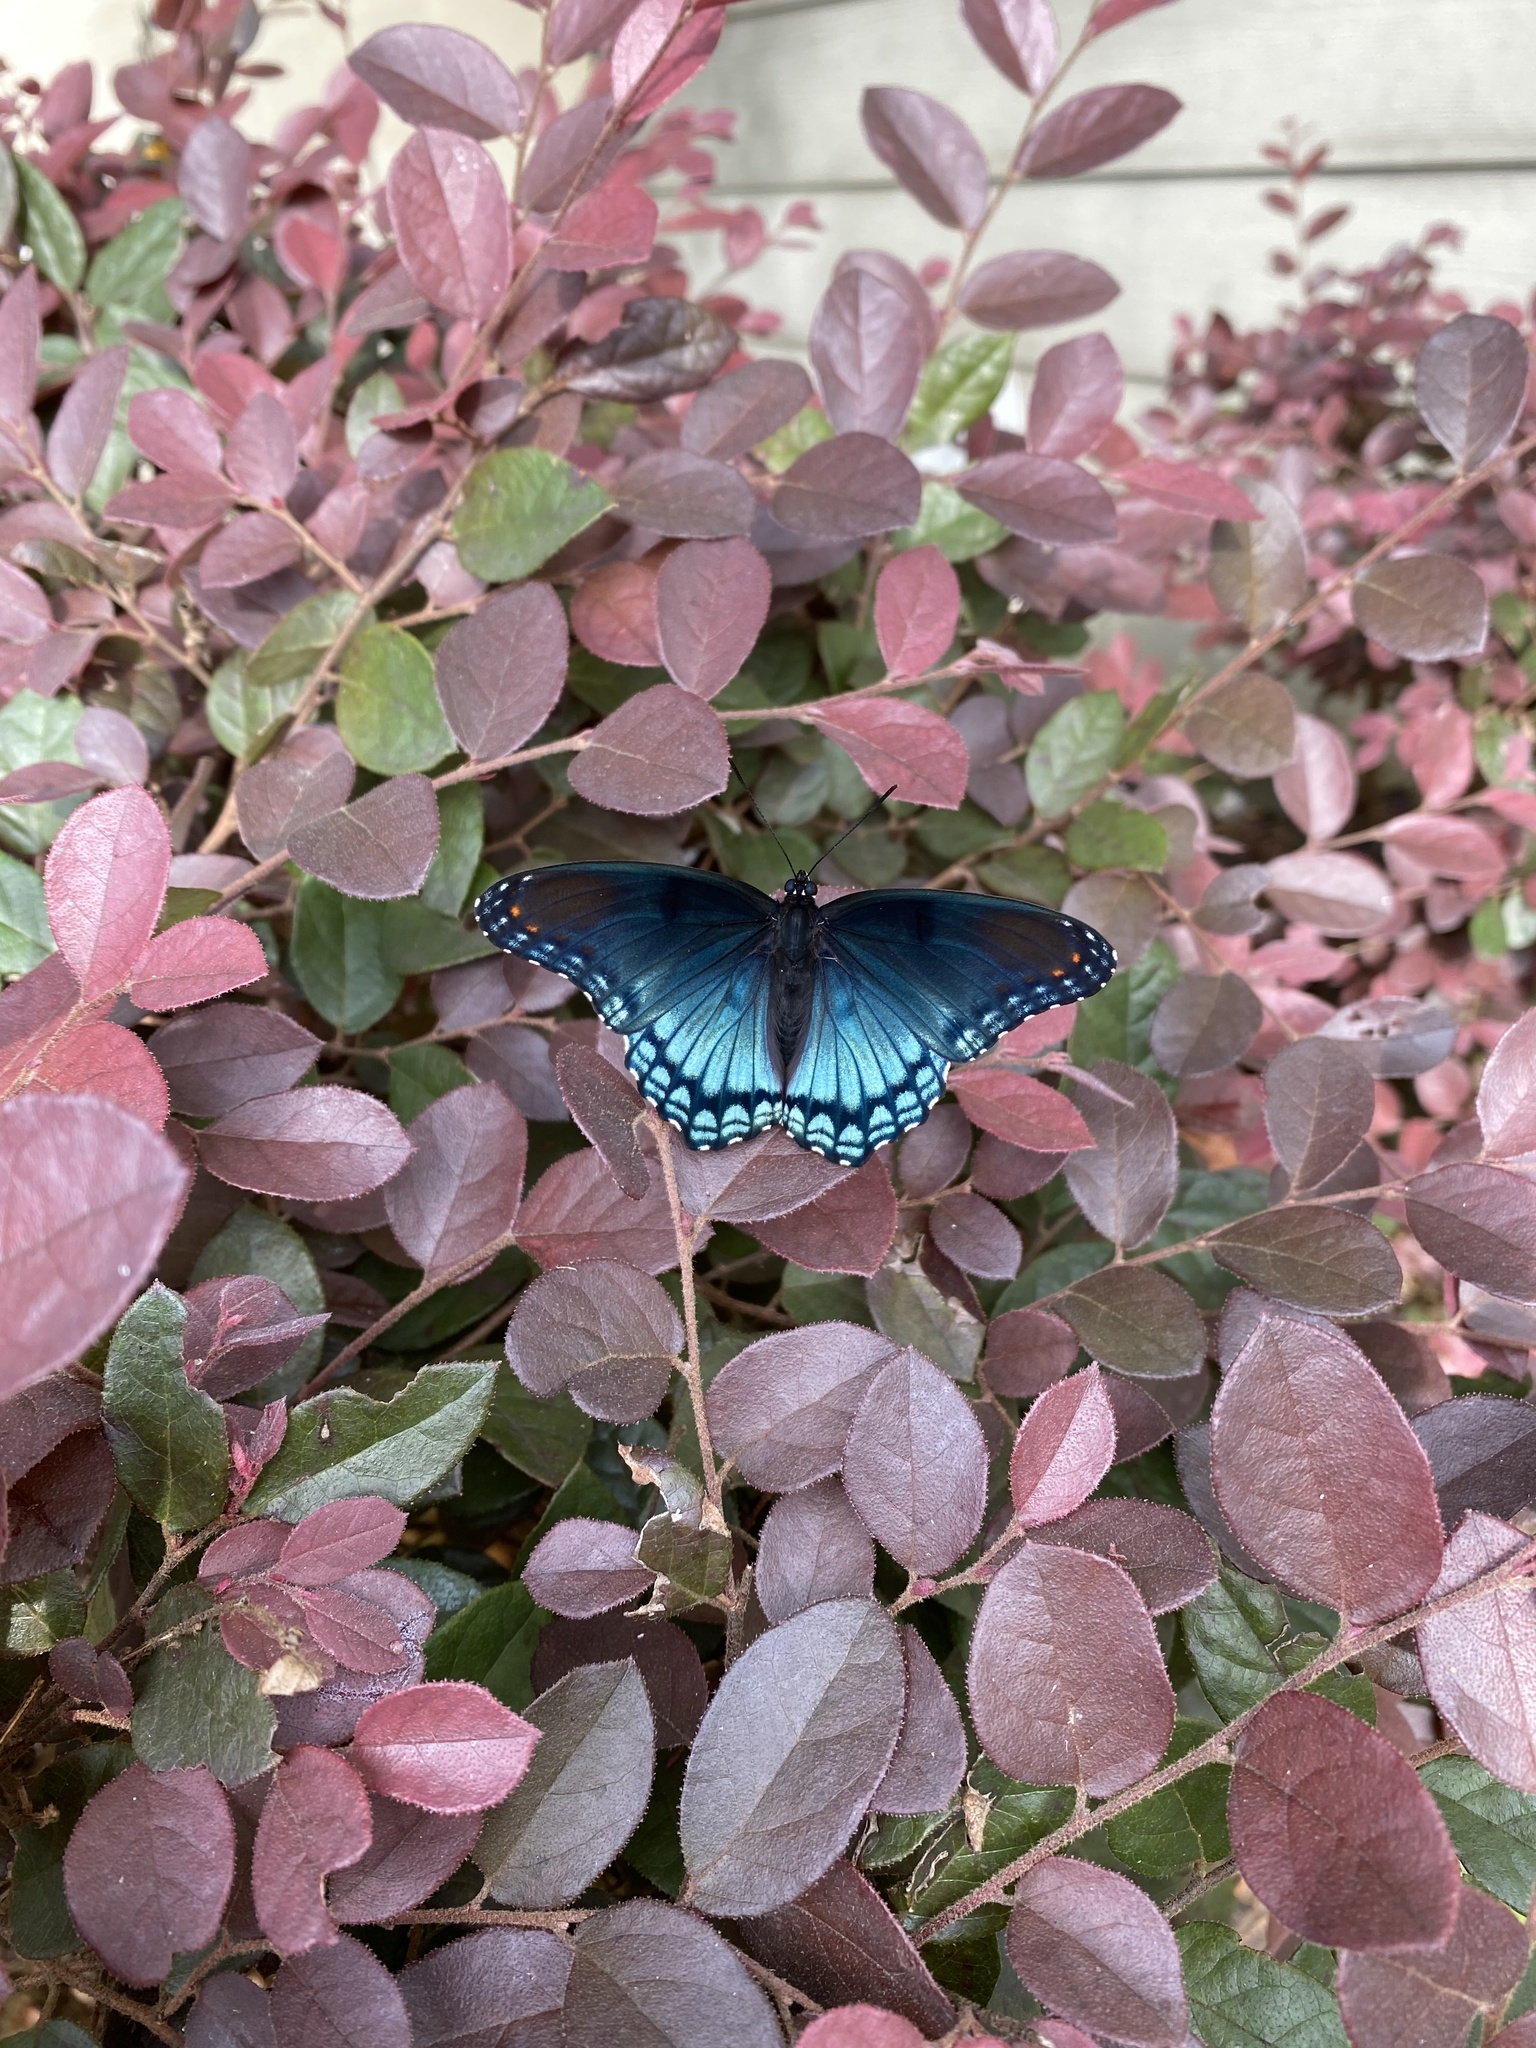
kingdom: Animalia
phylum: Arthropoda
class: Insecta
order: Lepidoptera
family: Nymphalidae
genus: Limenitis
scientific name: Limenitis astyanax
